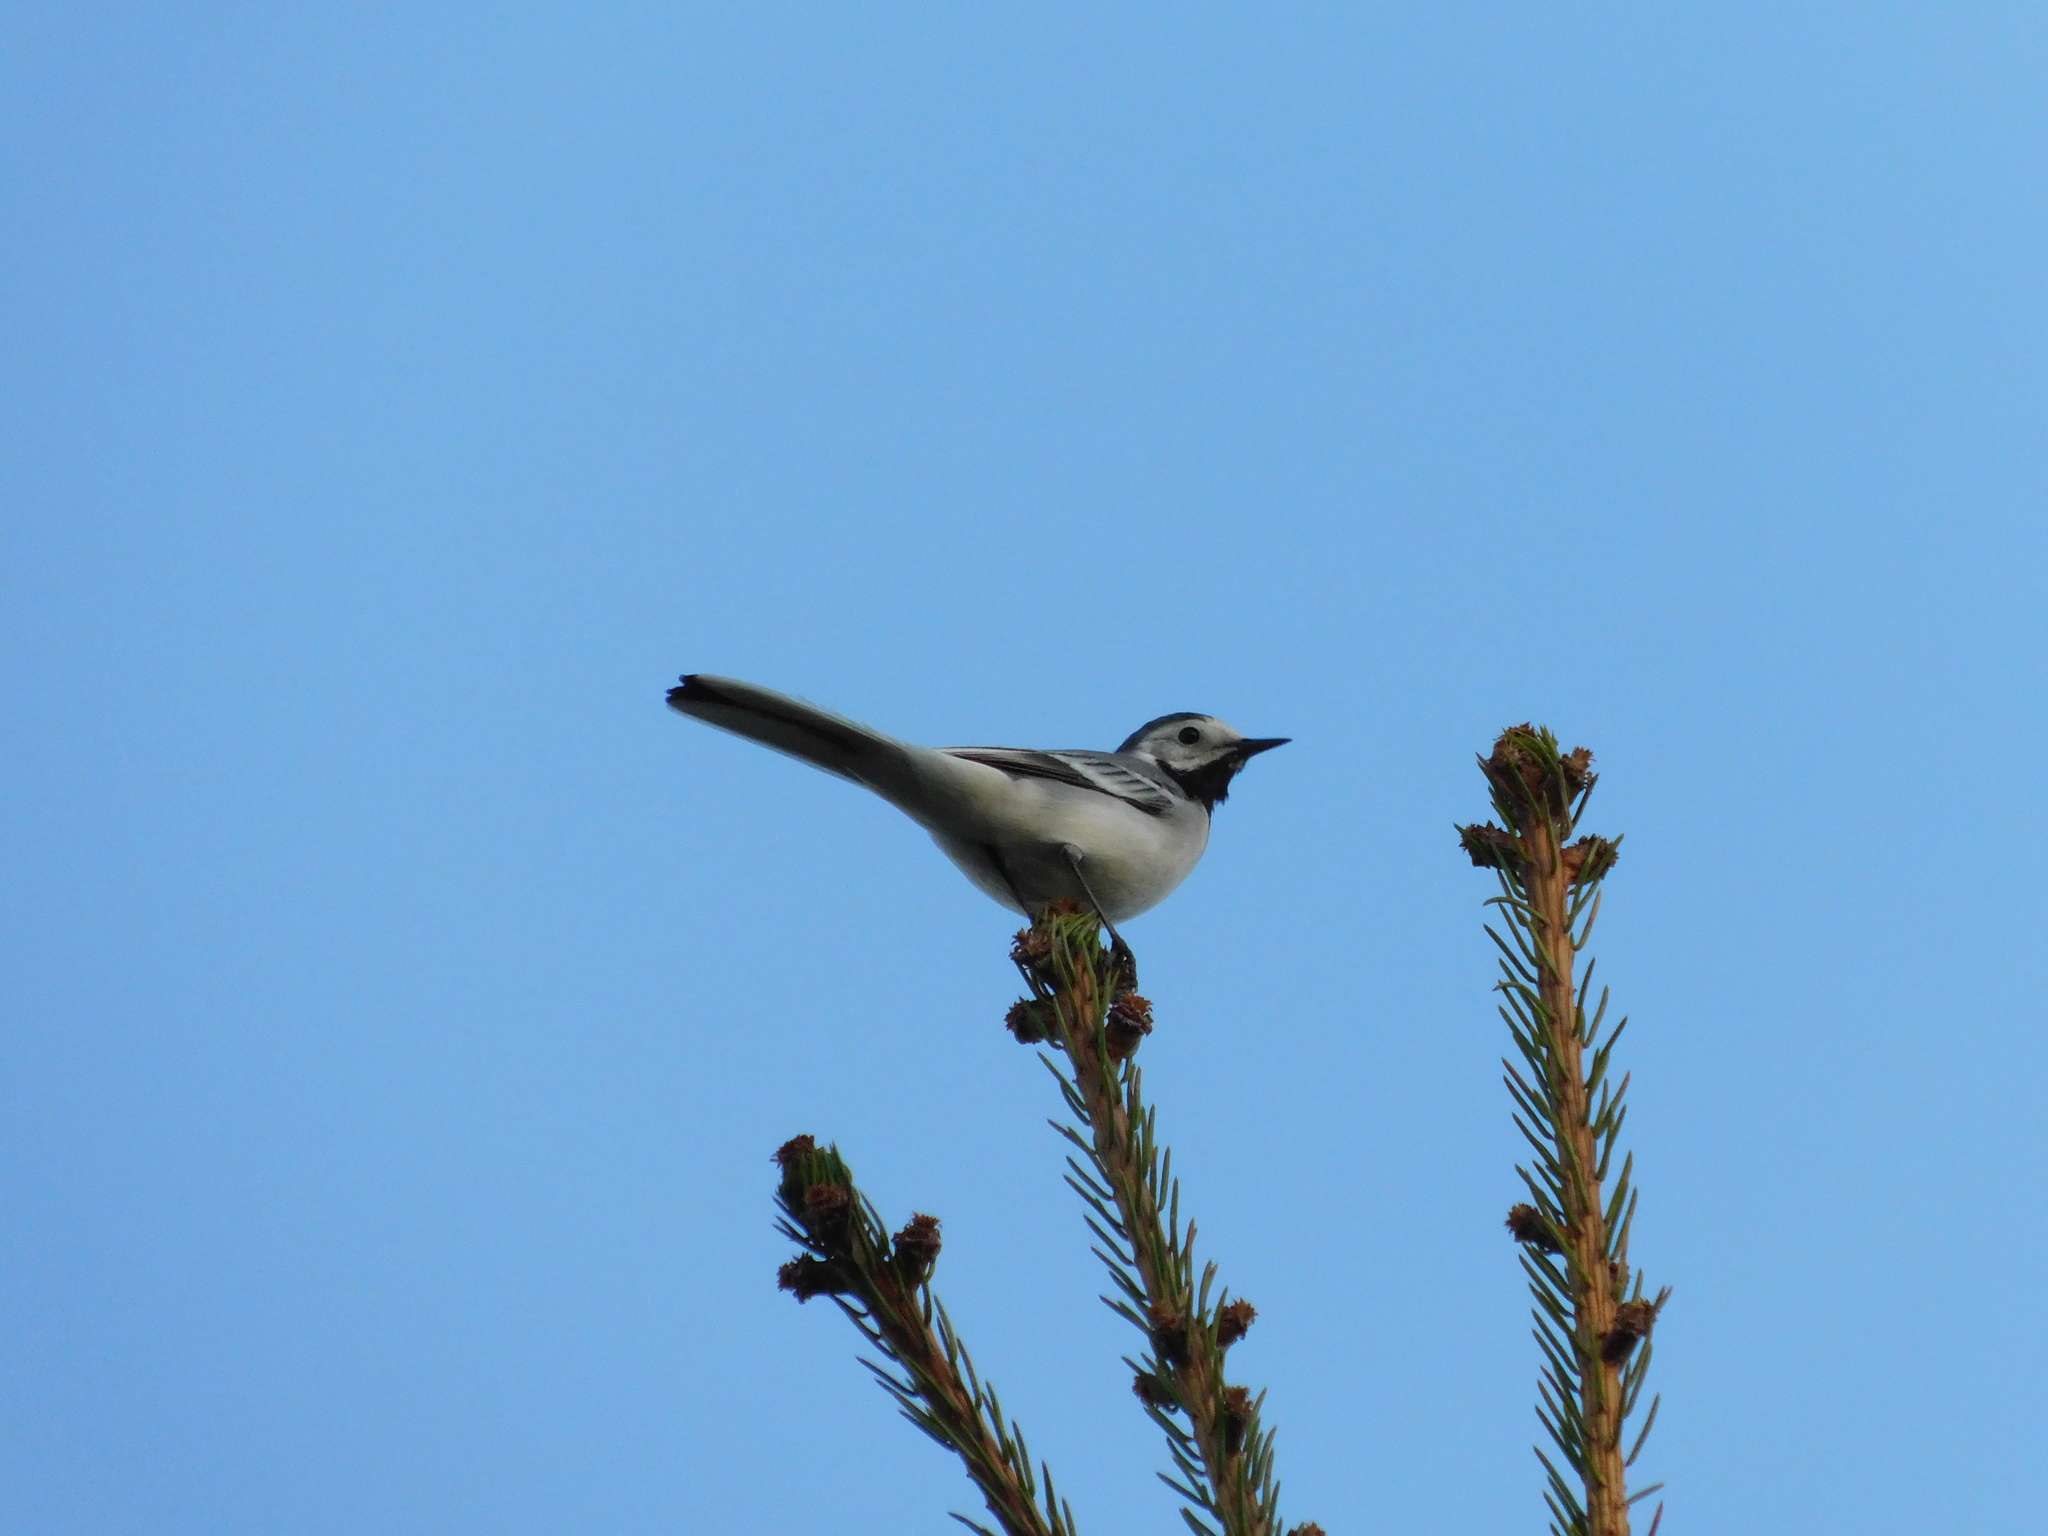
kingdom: Animalia
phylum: Chordata
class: Aves
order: Passeriformes
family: Motacillidae
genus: Motacilla
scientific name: Motacilla alba
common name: White wagtail
